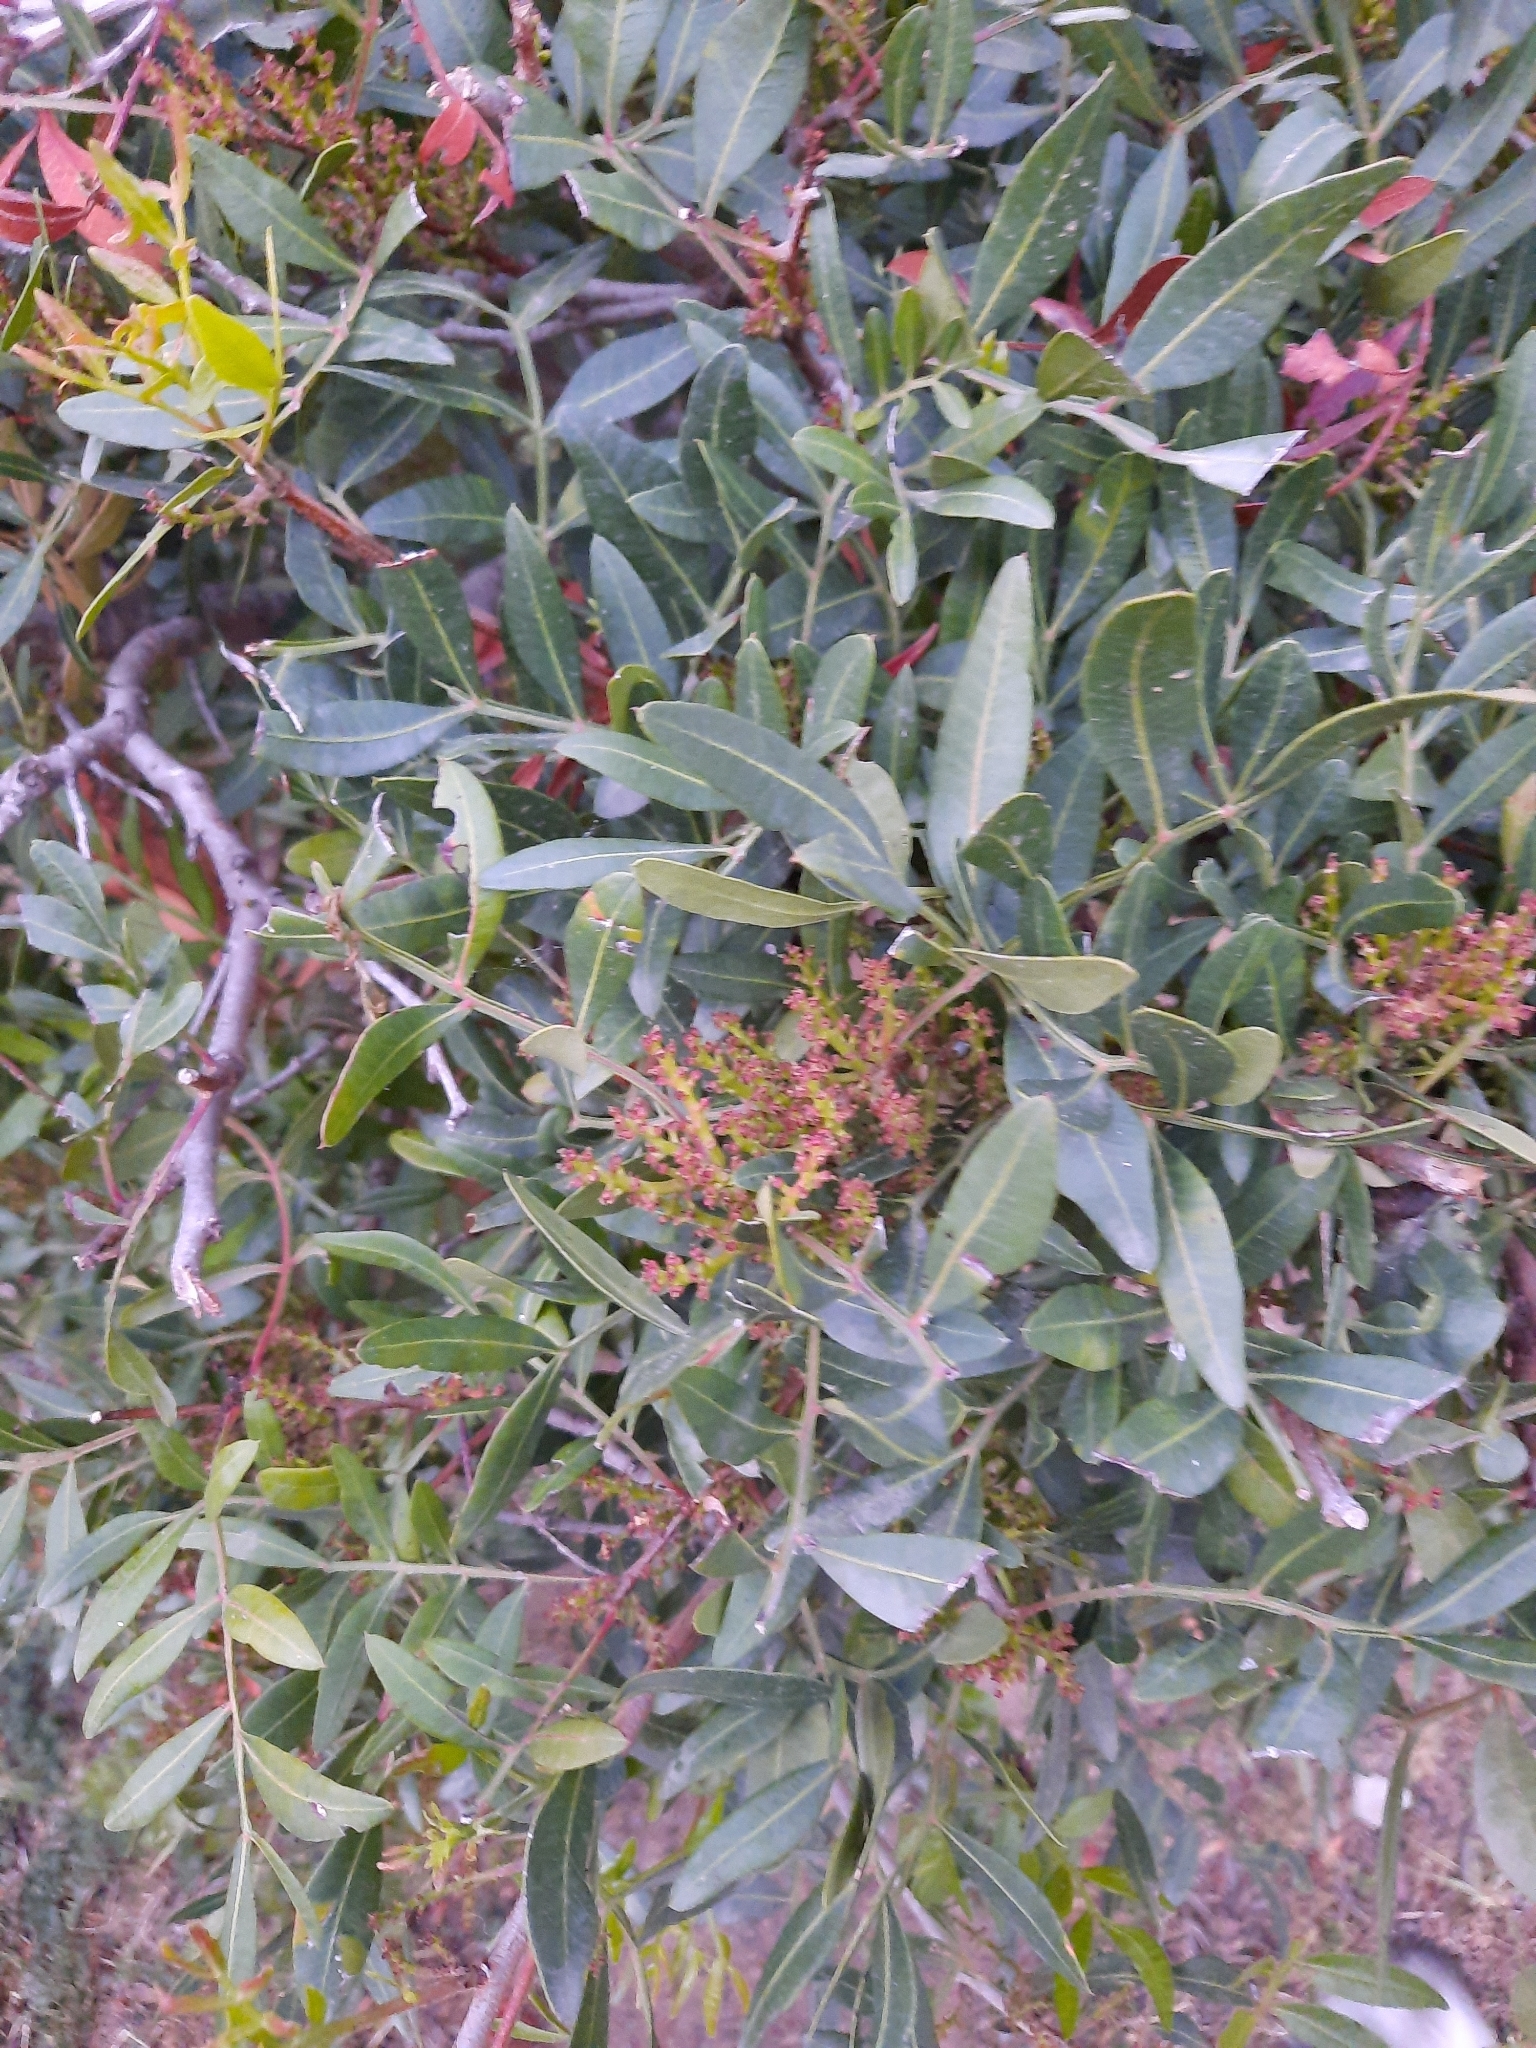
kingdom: Plantae
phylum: Tracheophyta
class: Magnoliopsida
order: Sapindales
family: Anacardiaceae
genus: Pistacia
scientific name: Pistacia lentiscus
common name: Lentisk
